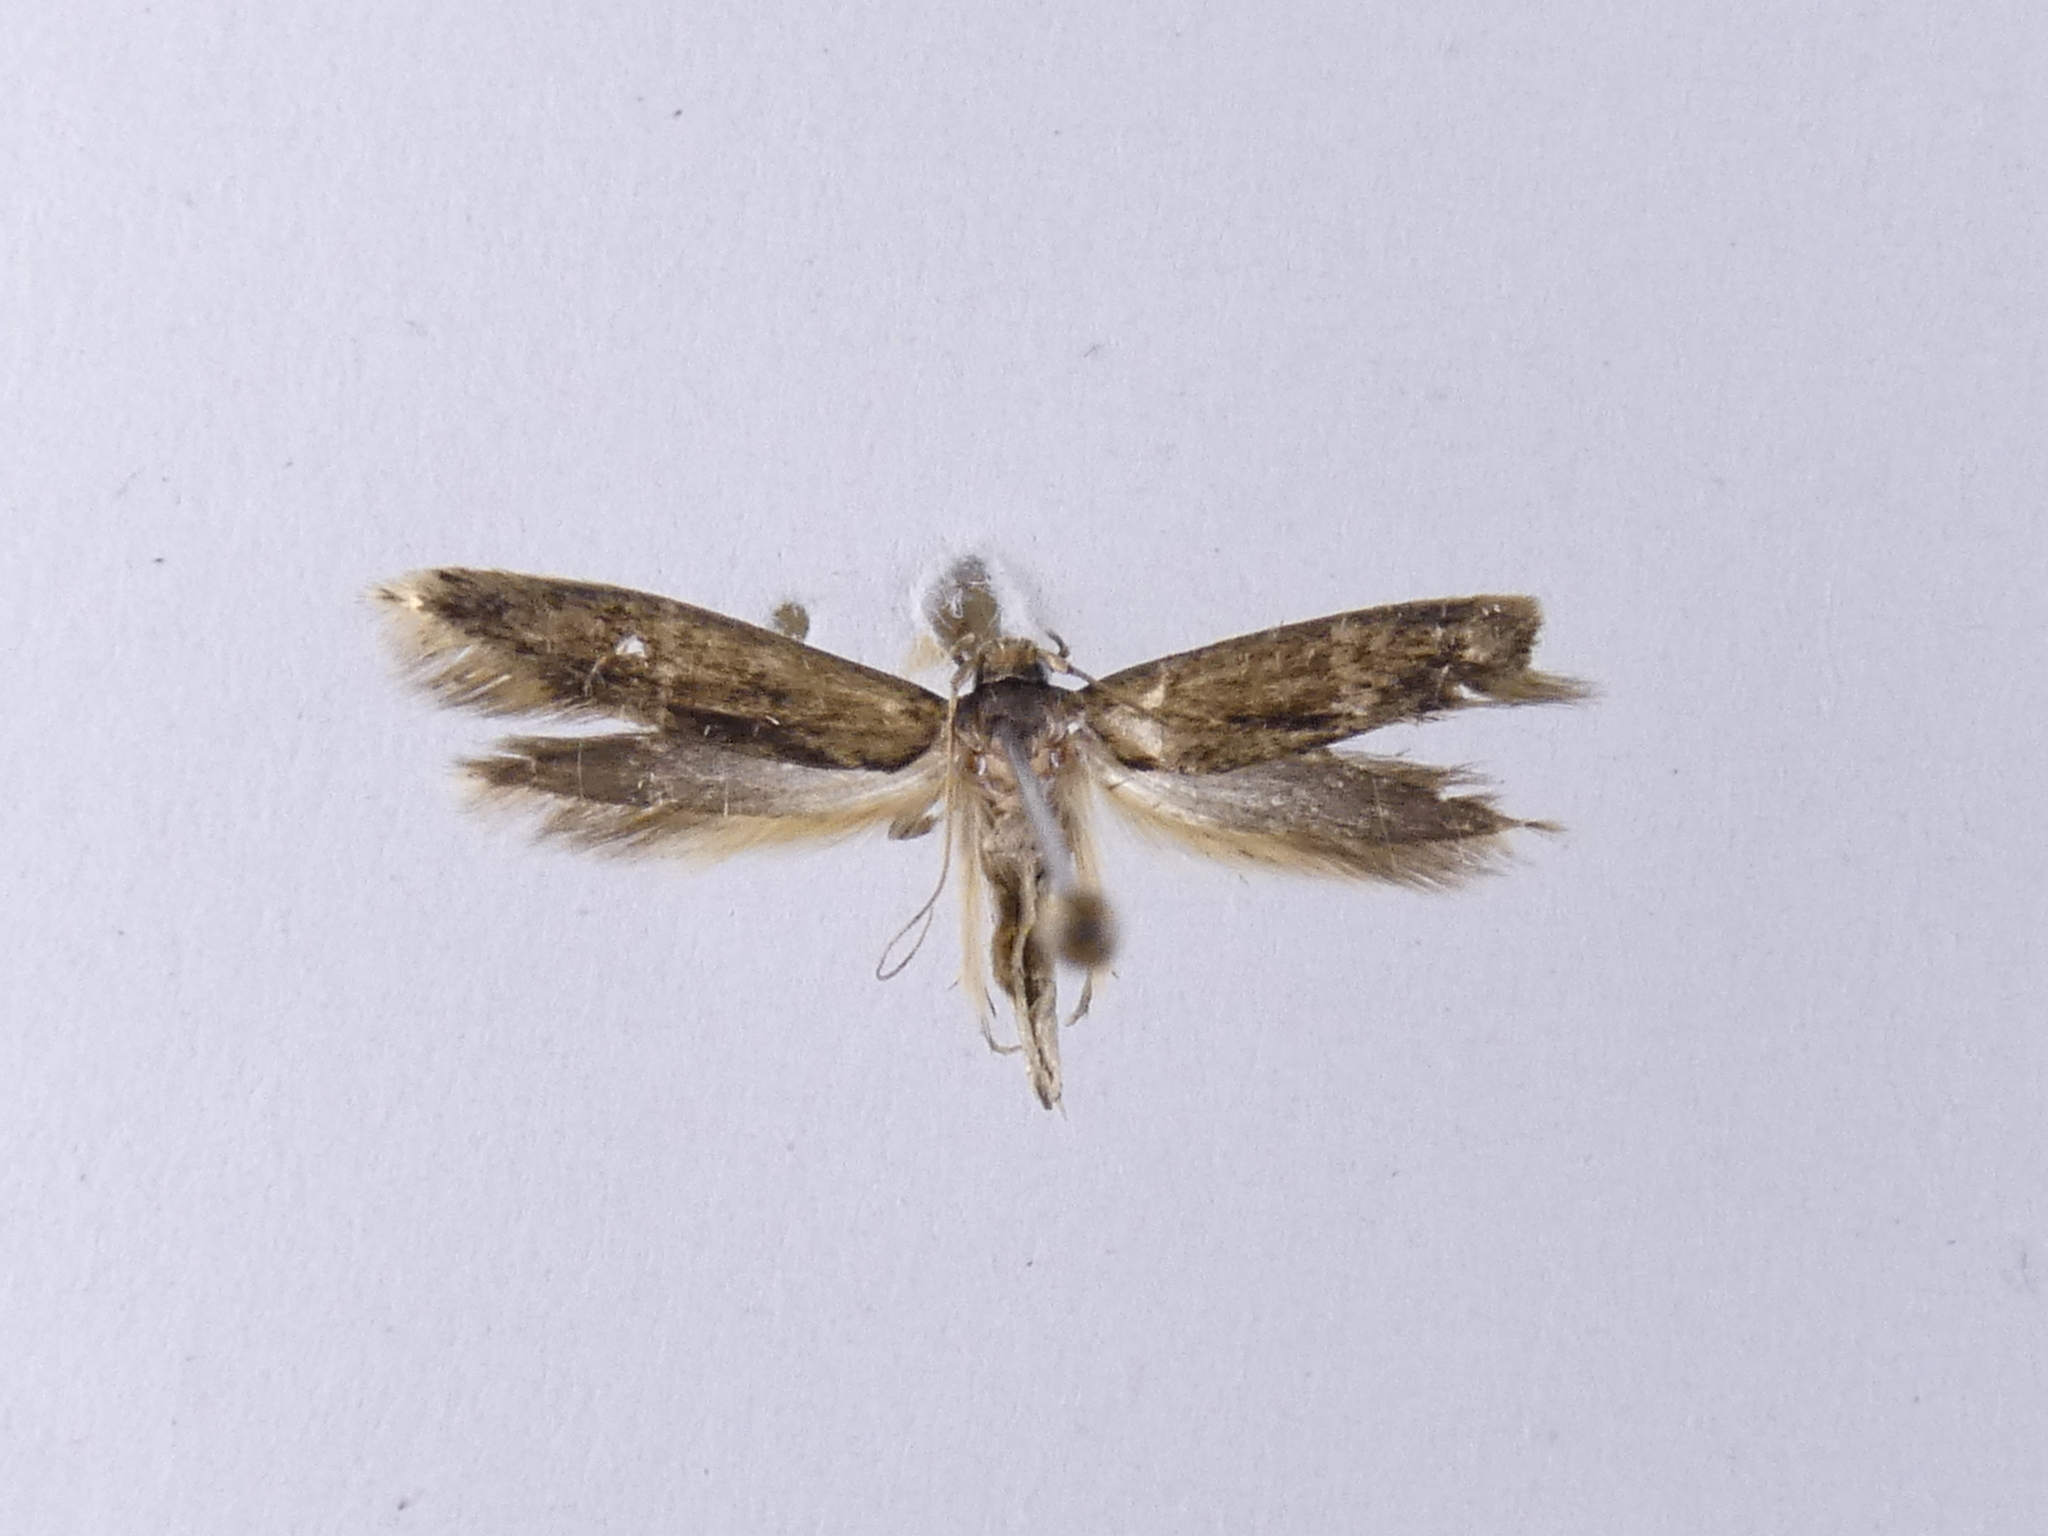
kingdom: Animalia
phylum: Arthropoda
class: Insecta
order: Lepidoptera
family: Tineidae
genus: Opogona
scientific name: Opogona omoscopa
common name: Moth
